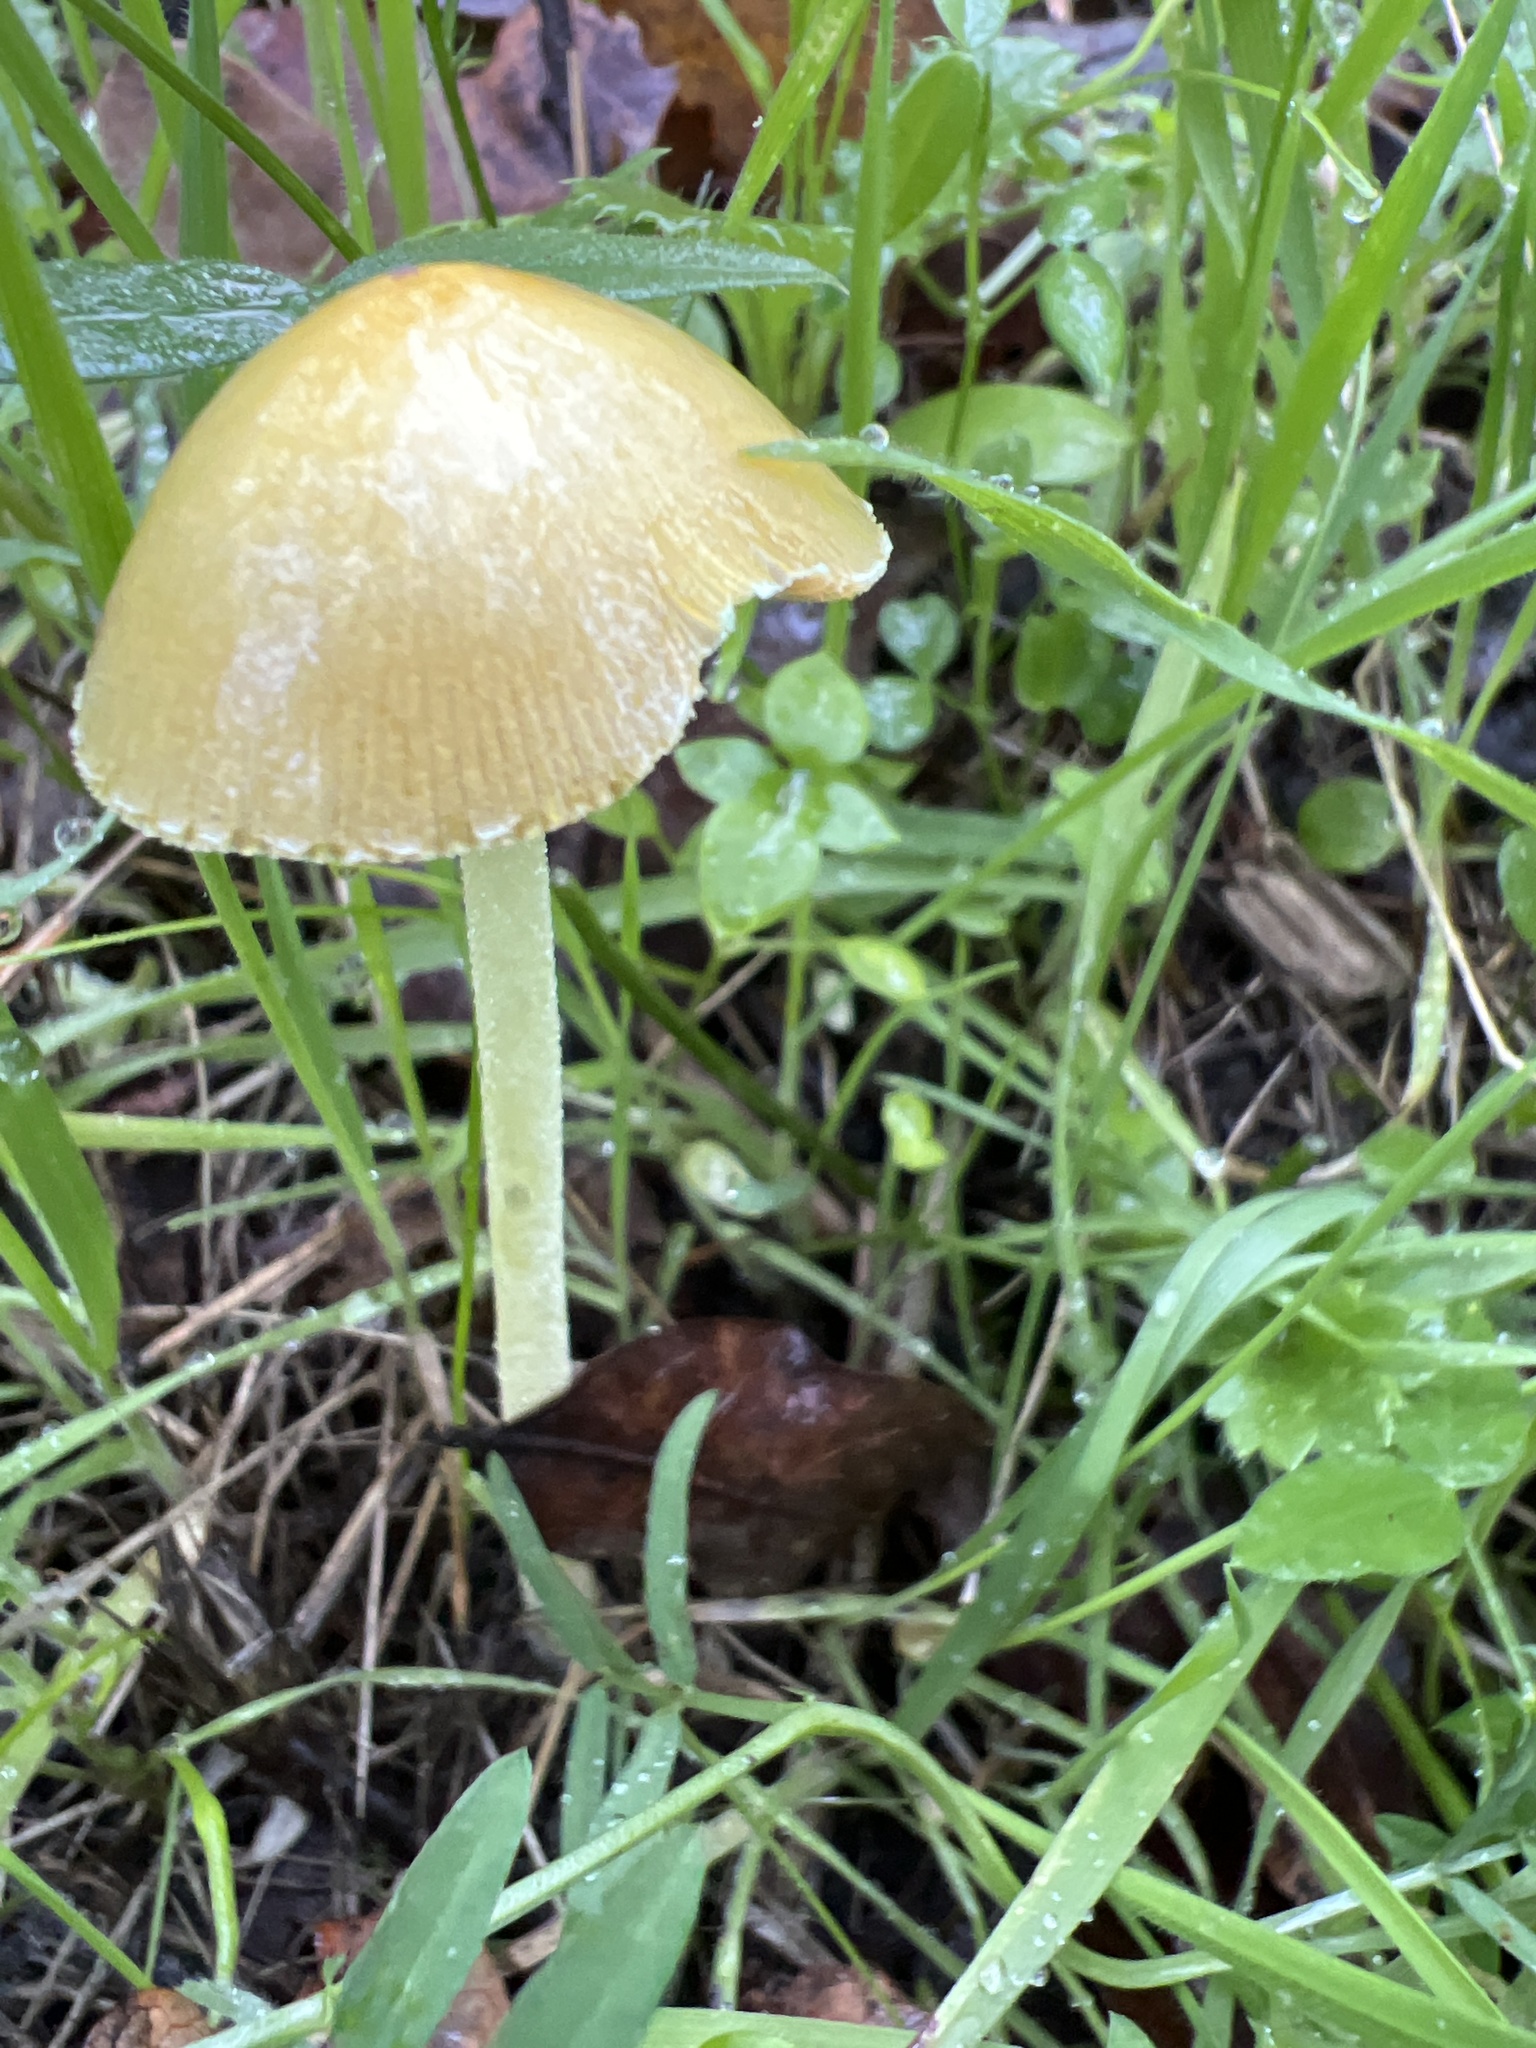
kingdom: Fungi
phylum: Basidiomycota
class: Agaricomycetes
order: Agaricales
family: Bolbitiaceae
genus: Bolbitius
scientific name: Bolbitius titubans
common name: Yellow fieldcap
